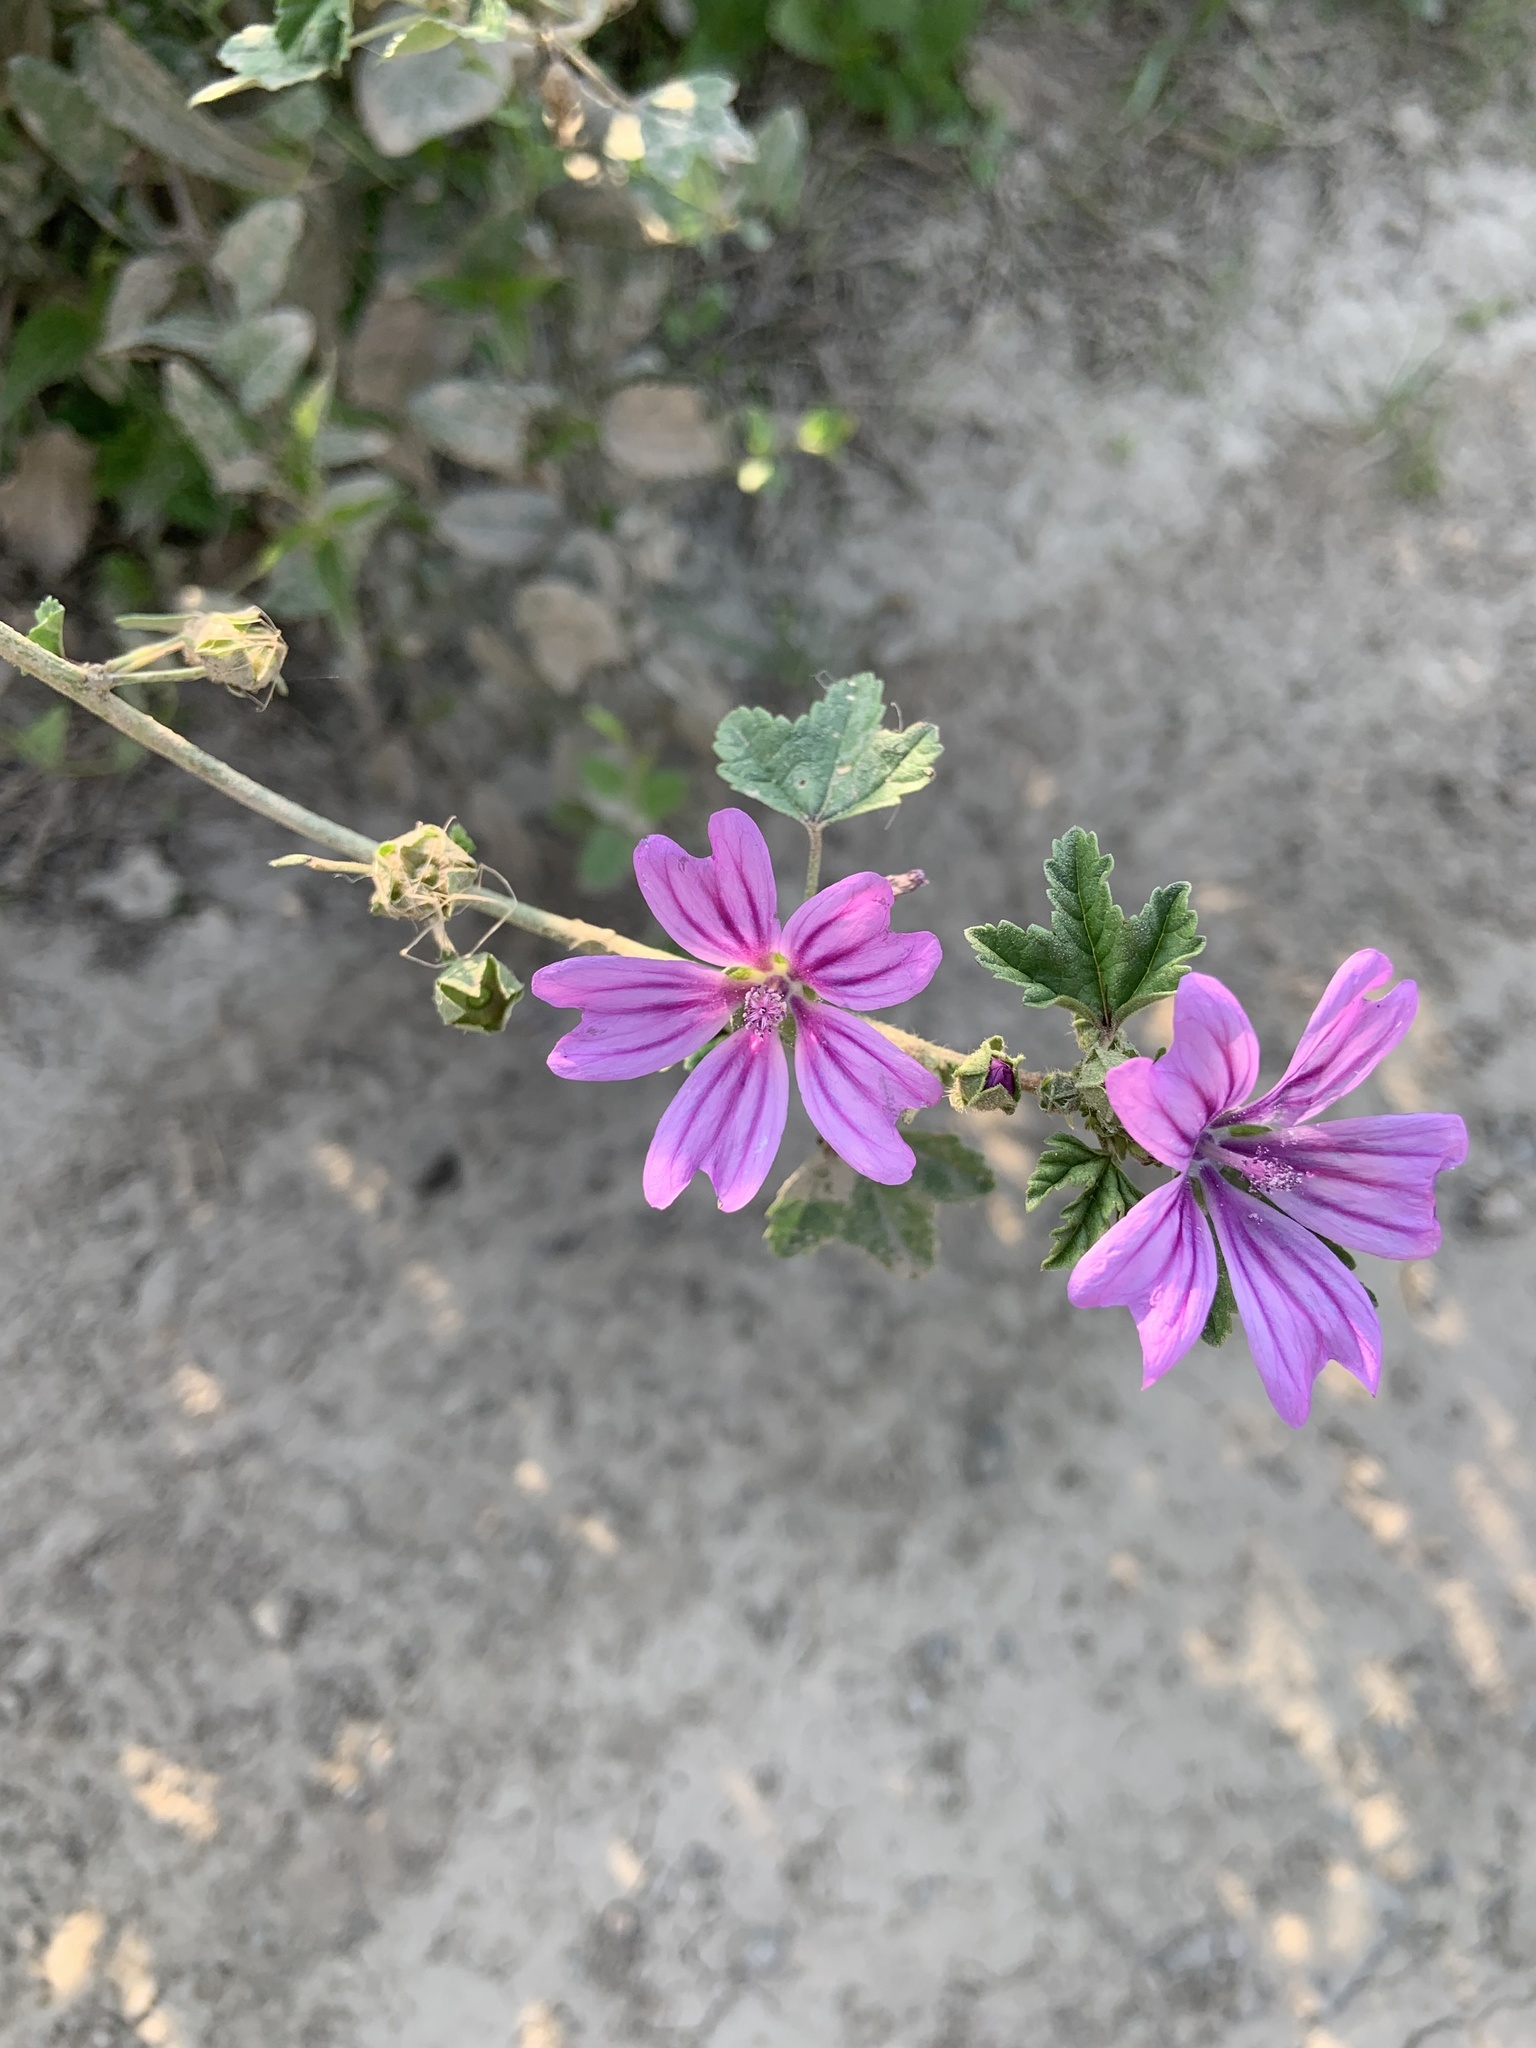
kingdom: Plantae
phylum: Tracheophyta
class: Magnoliopsida
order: Malvales
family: Malvaceae
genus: Malva
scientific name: Malva sylvestris
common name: Common mallow
